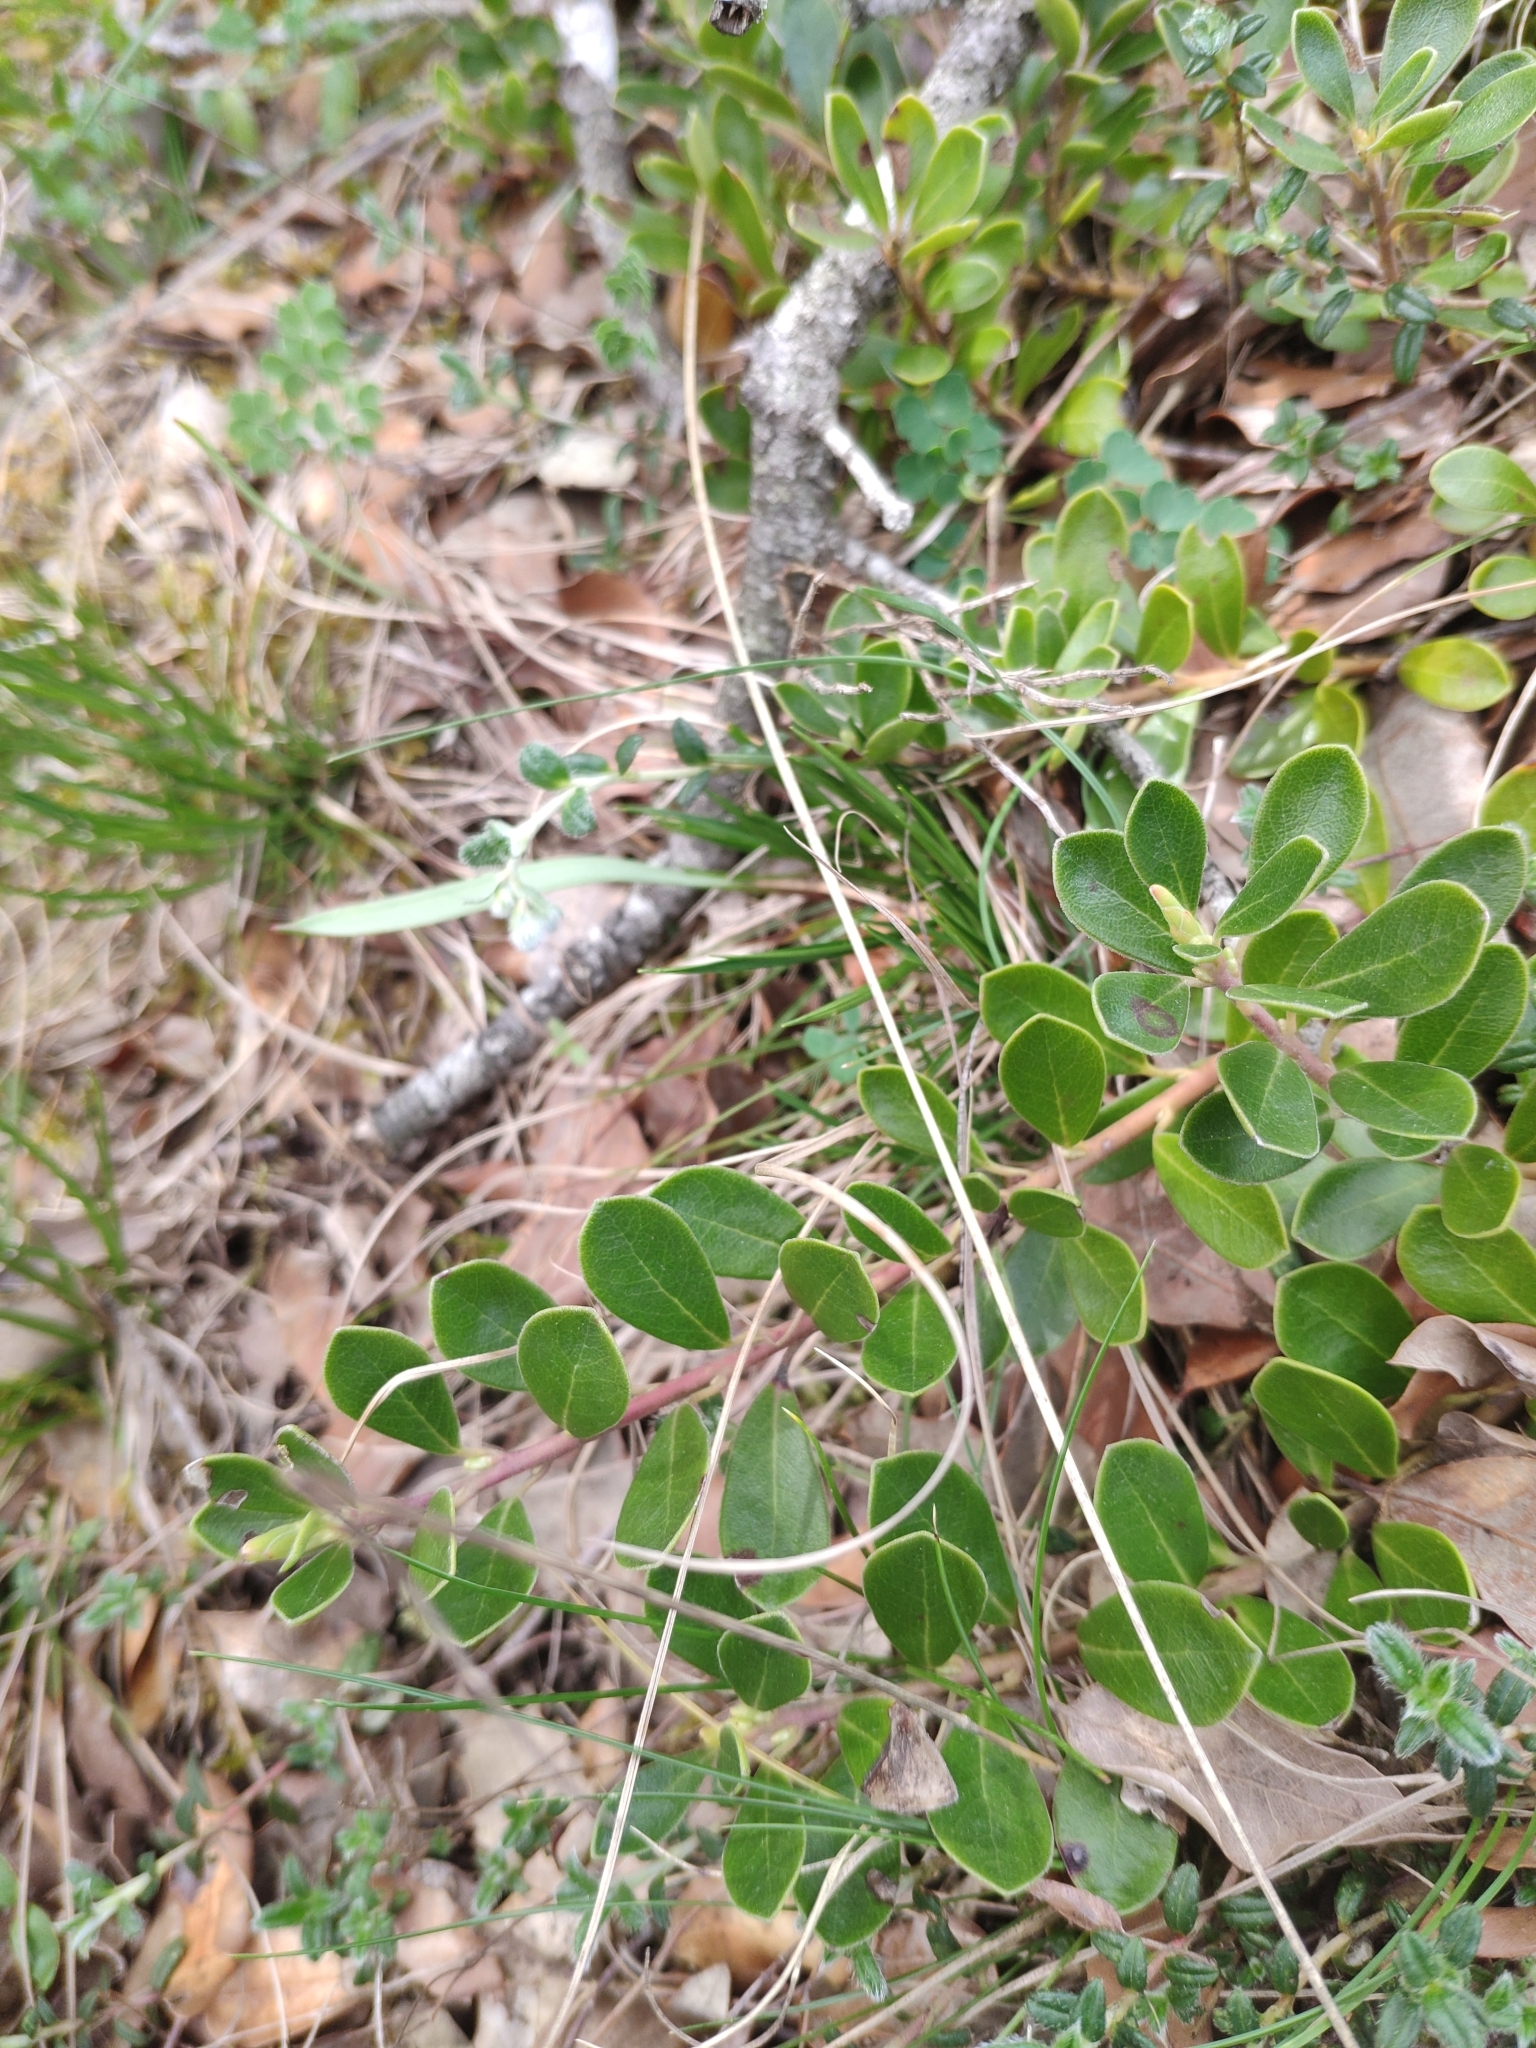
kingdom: Plantae
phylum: Tracheophyta
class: Magnoliopsida
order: Ericales
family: Ericaceae
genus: Arctostaphylos
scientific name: Arctostaphylos uva-ursi
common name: Bearberry
